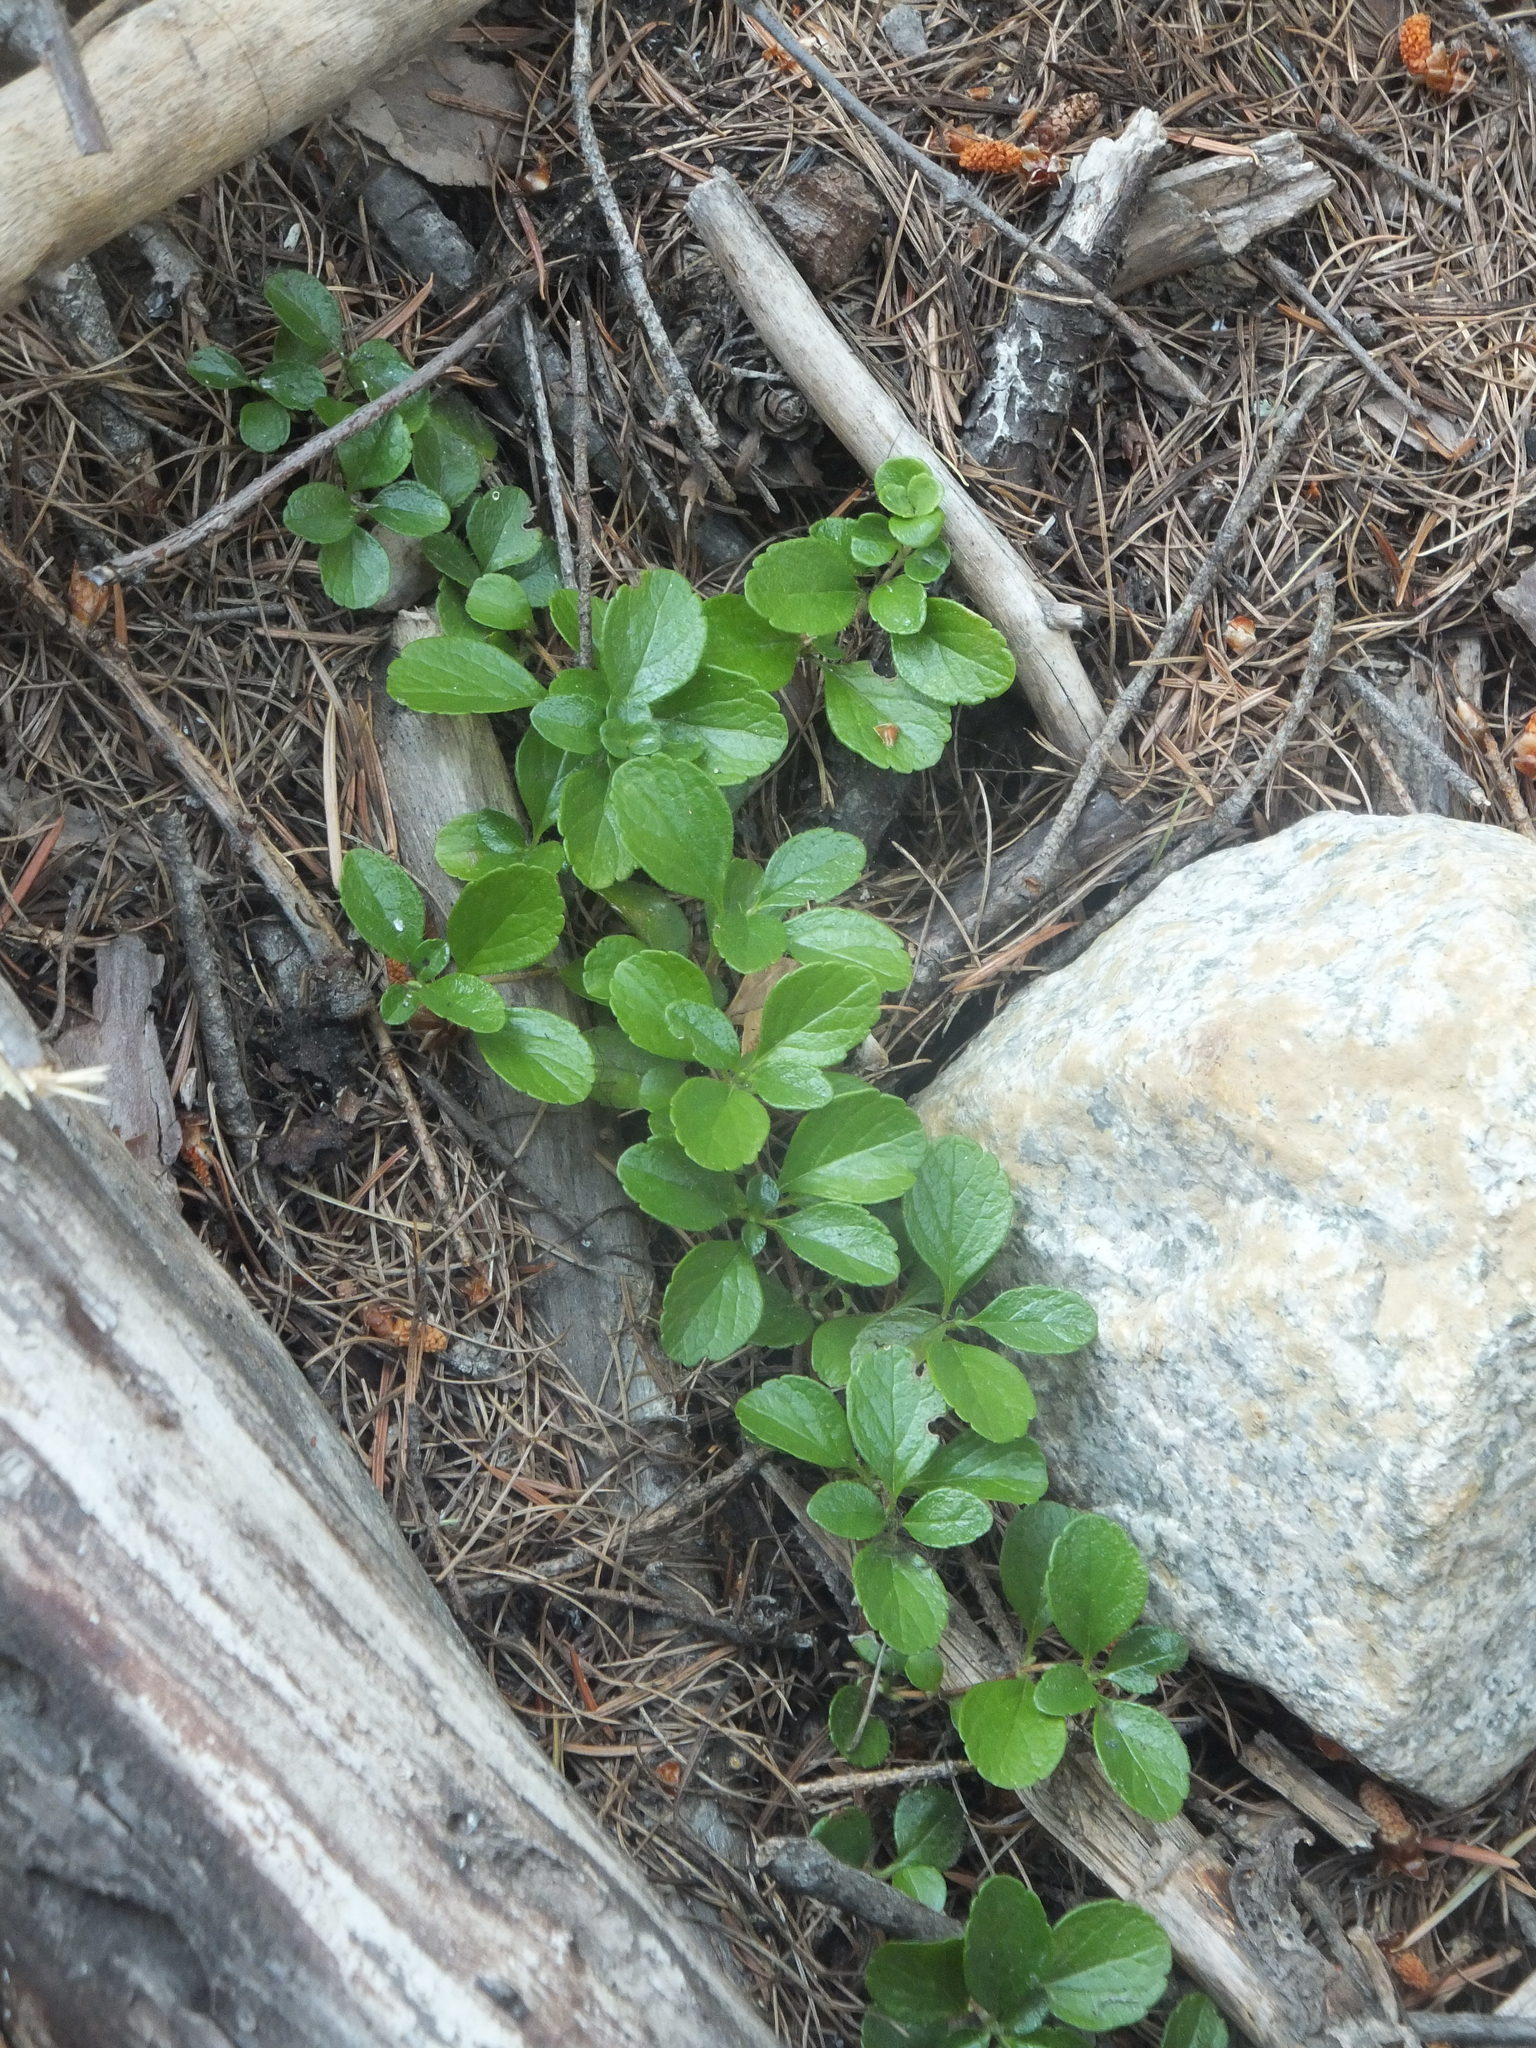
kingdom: Plantae
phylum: Tracheophyta
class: Magnoliopsida
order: Dipsacales
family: Caprifoliaceae
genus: Linnaea
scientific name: Linnaea borealis
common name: Twinflower
